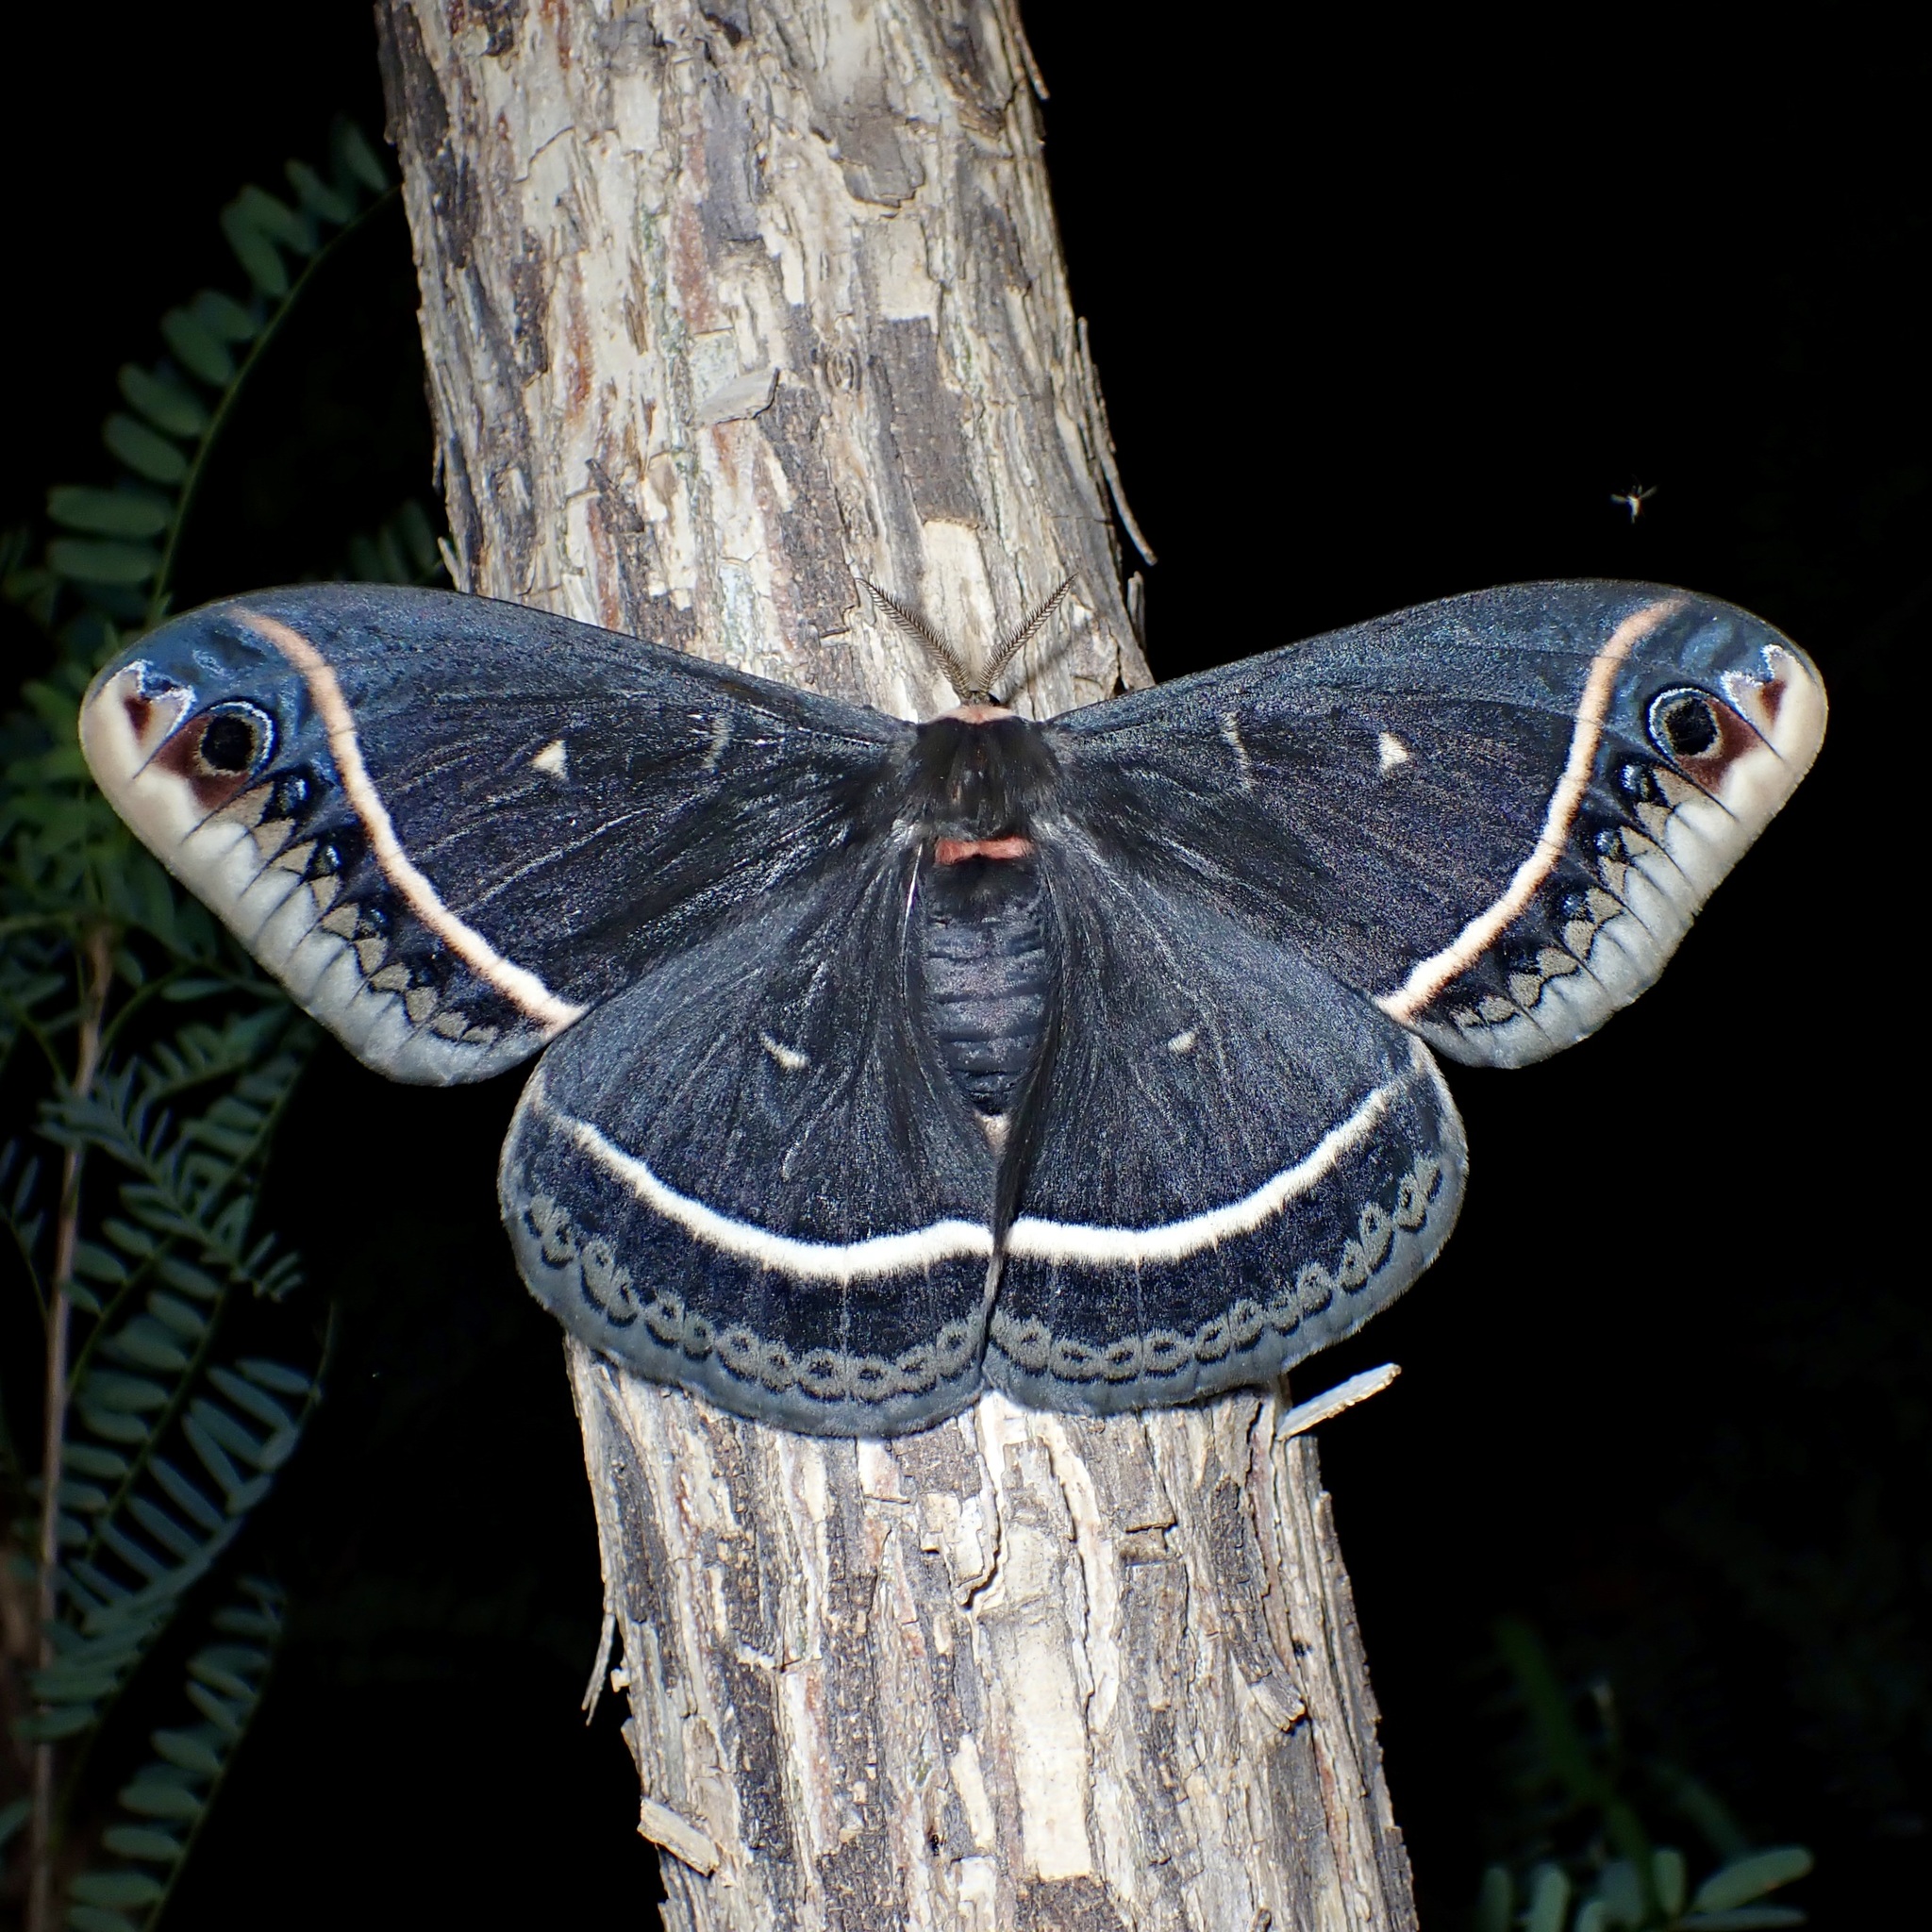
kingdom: Animalia
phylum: Arthropoda
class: Insecta
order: Lepidoptera
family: Saturniidae
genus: Eupackardia
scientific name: Eupackardia calleta
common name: Calleta silkmoth
